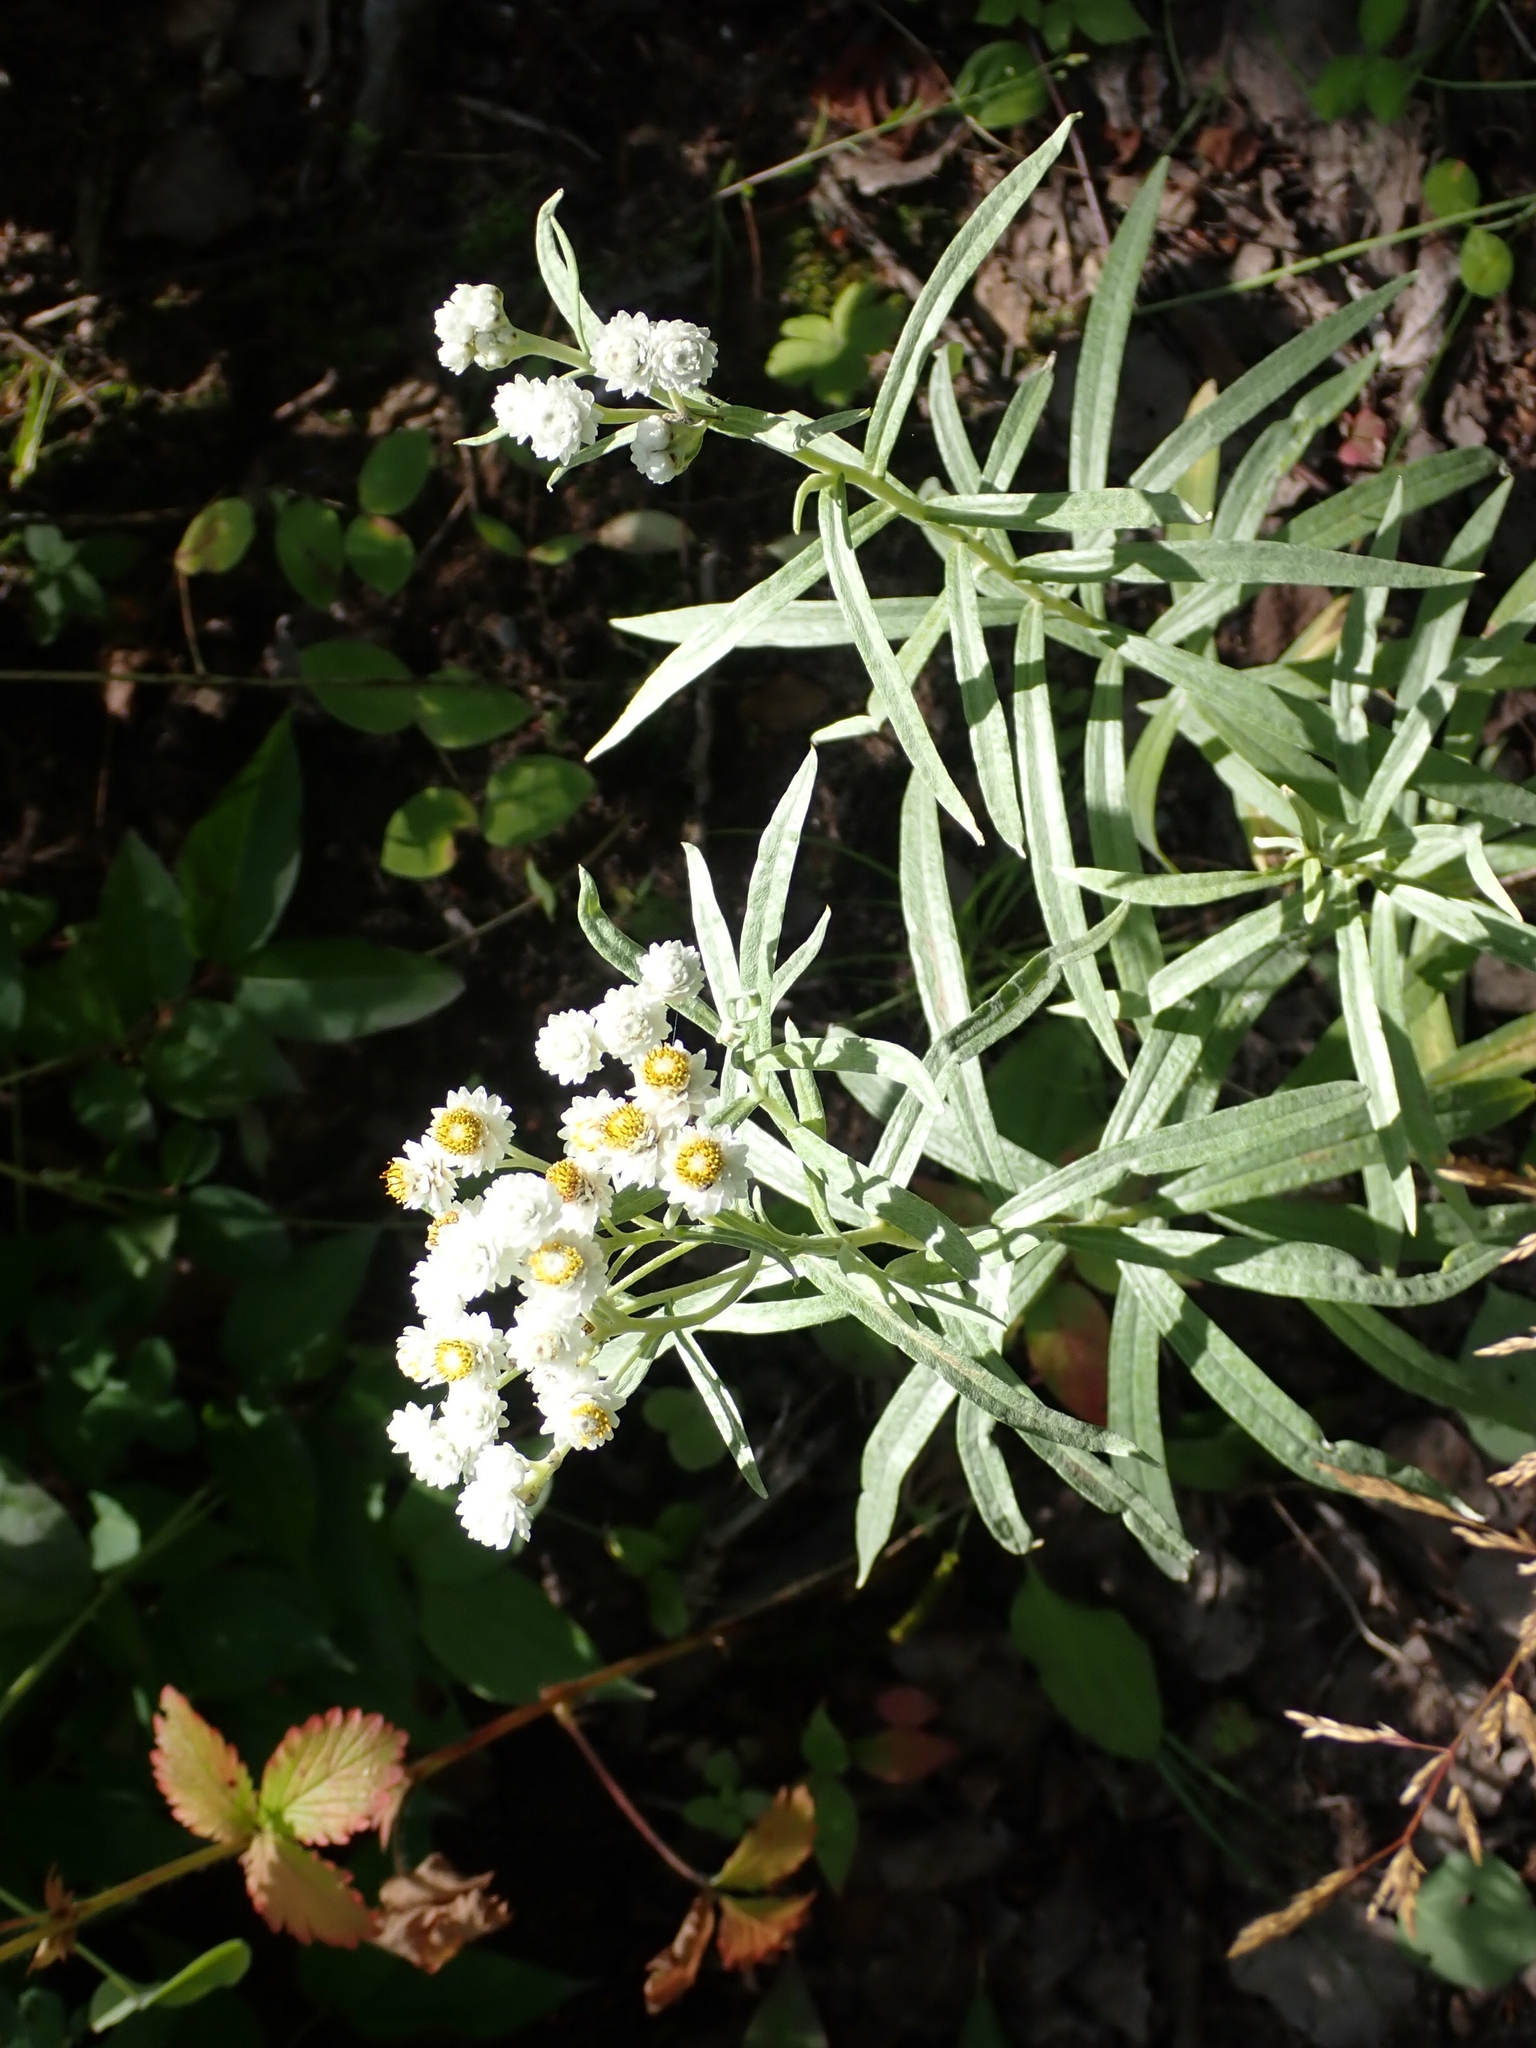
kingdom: Plantae
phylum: Tracheophyta
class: Magnoliopsida
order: Asterales
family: Asteraceae
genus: Anaphalis
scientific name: Anaphalis margaritacea
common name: Pearly everlasting
